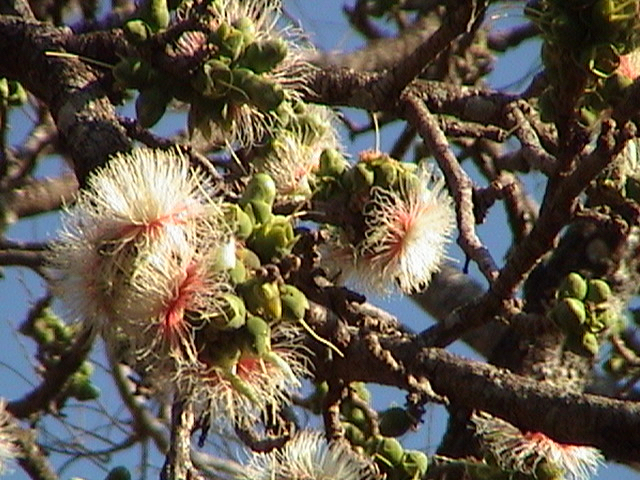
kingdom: Plantae
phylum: Tracheophyta
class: Magnoliopsida
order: Ericales
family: Lecythidaceae
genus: Careya
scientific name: Careya arborea
